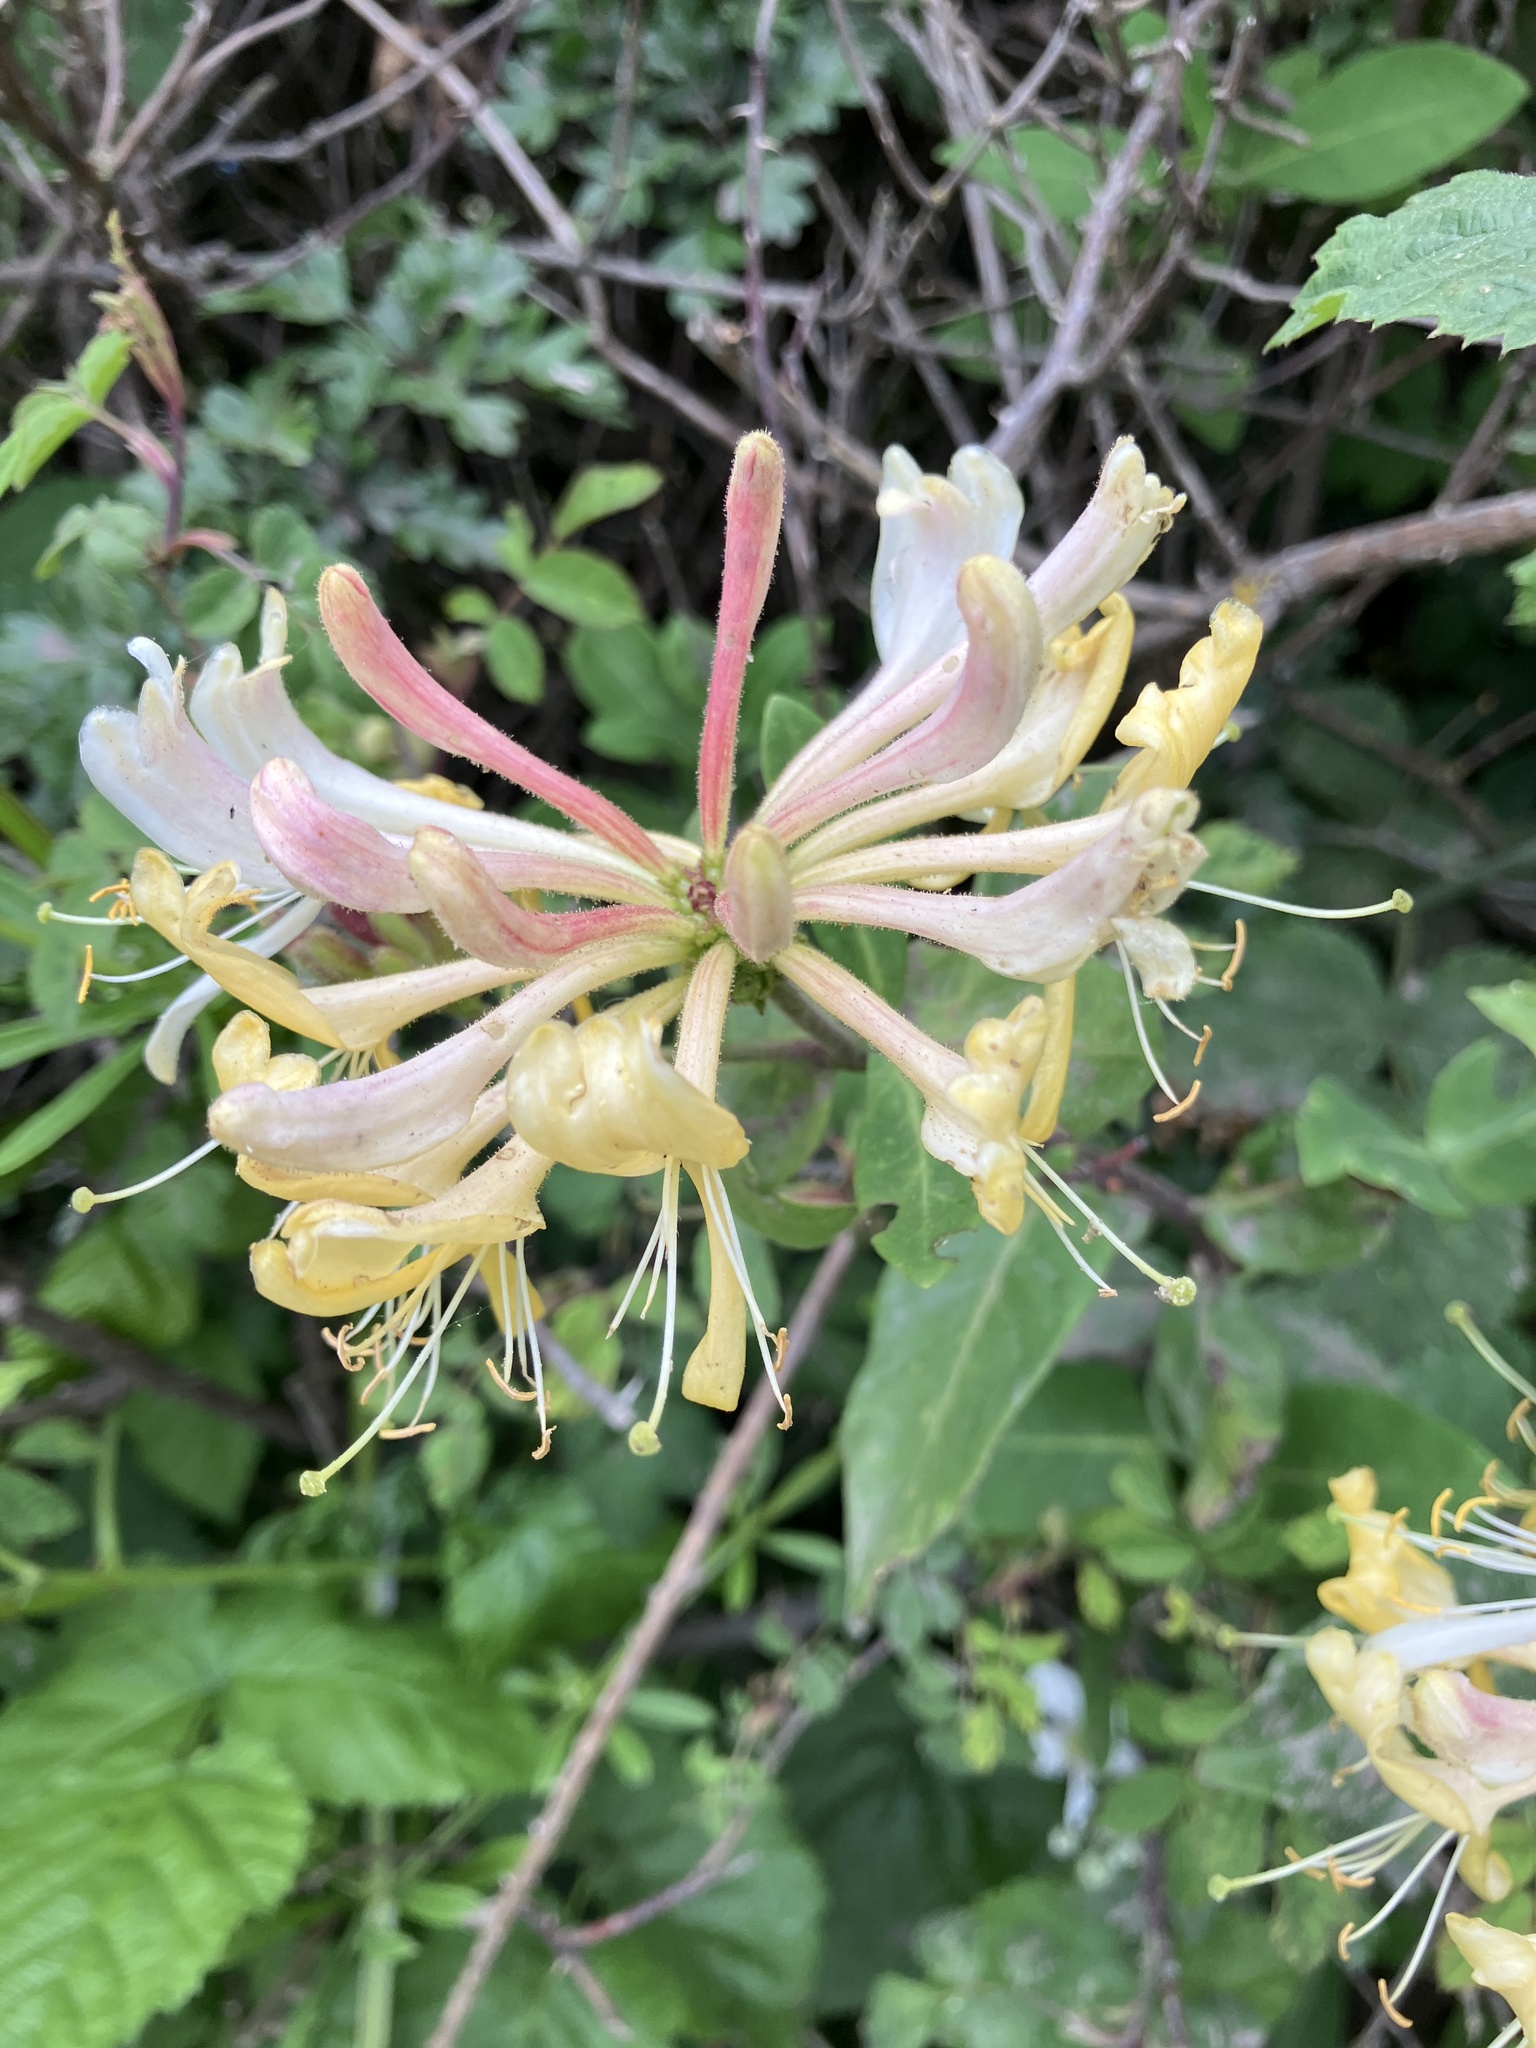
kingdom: Plantae
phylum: Tracheophyta
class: Magnoliopsida
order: Dipsacales
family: Caprifoliaceae
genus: Lonicera
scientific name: Lonicera periclymenum
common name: European honeysuckle
